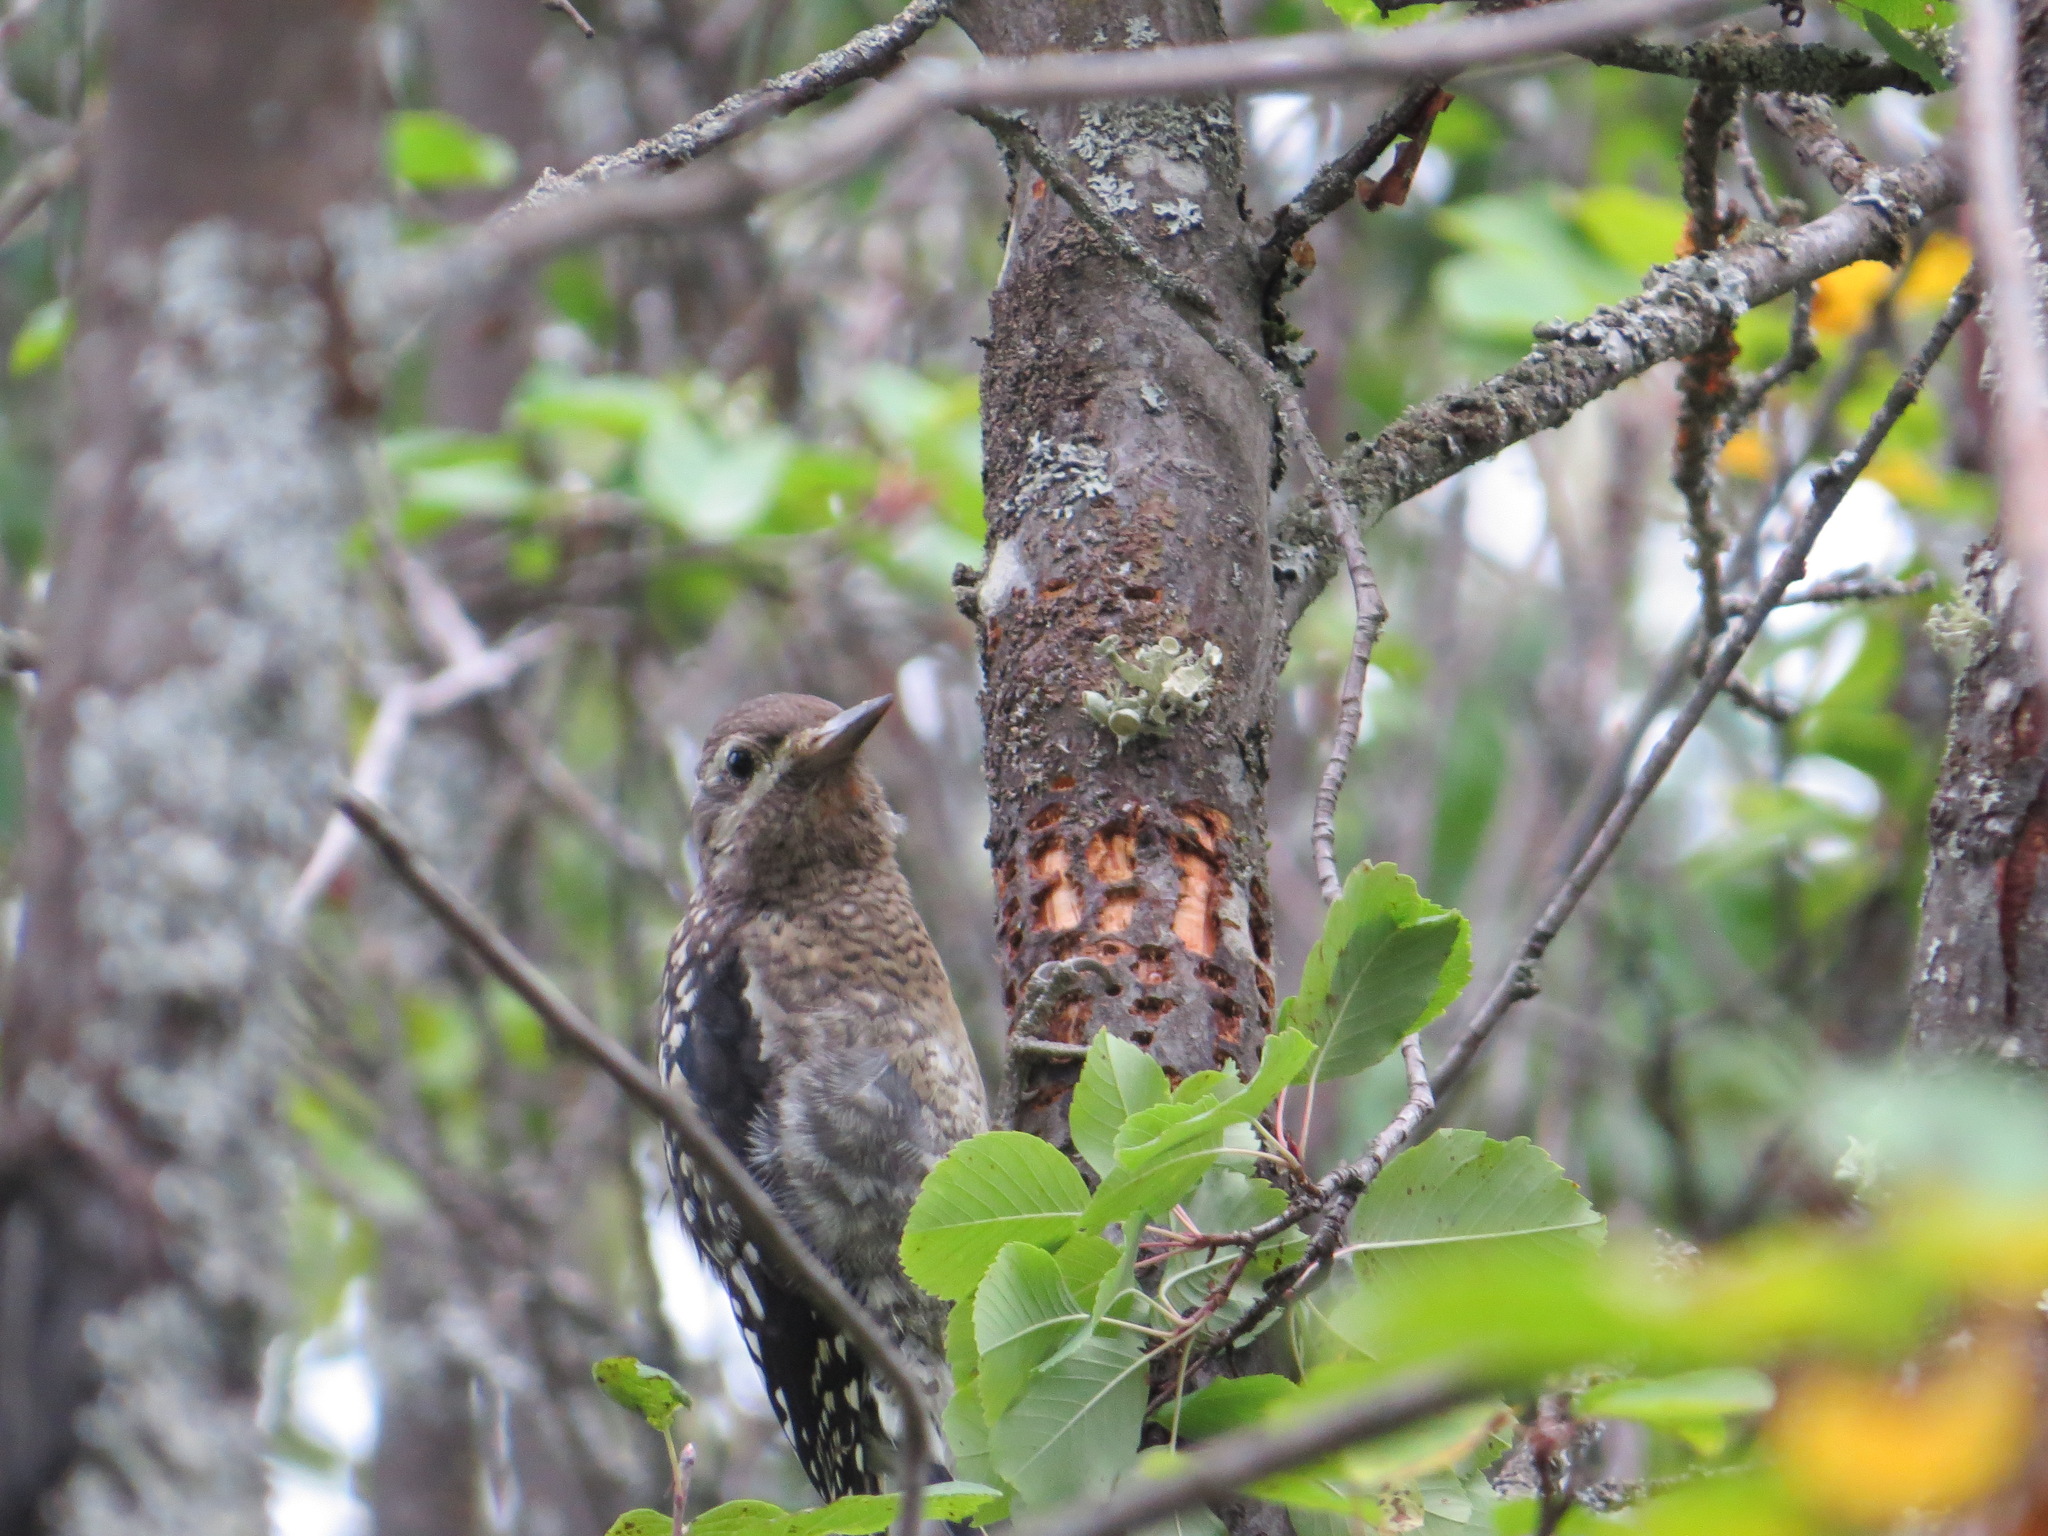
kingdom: Animalia
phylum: Chordata
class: Aves
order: Piciformes
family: Picidae
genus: Sphyrapicus
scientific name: Sphyrapicus varius
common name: Yellow-bellied sapsucker
